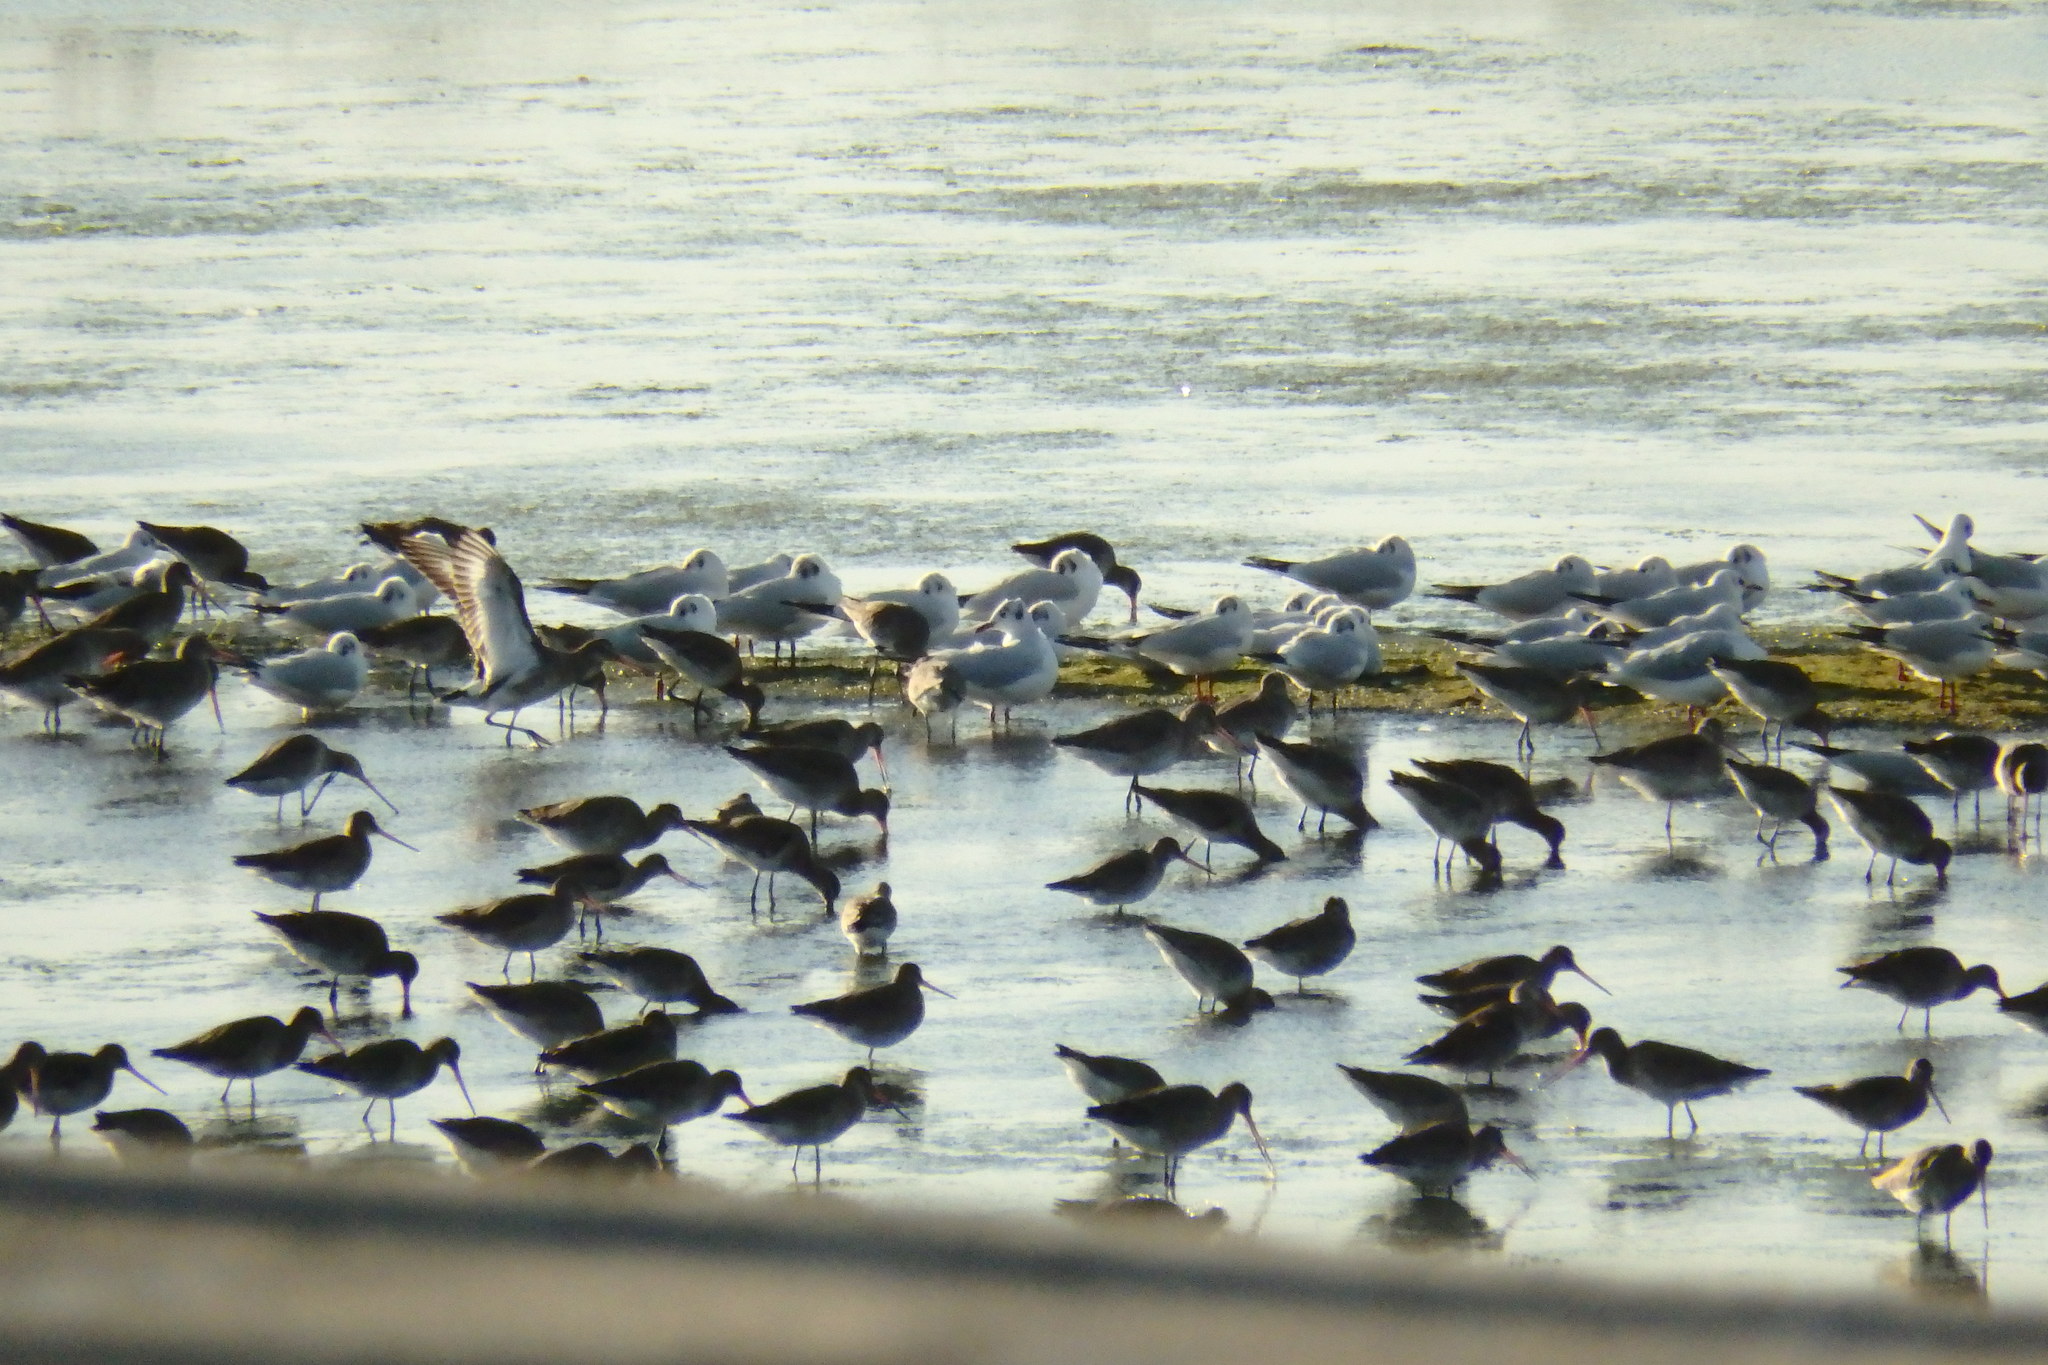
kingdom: Animalia
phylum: Chordata
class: Aves
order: Charadriiformes
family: Laridae
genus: Chroicocephalus
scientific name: Chroicocephalus ridibundus
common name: Black-headed gull
